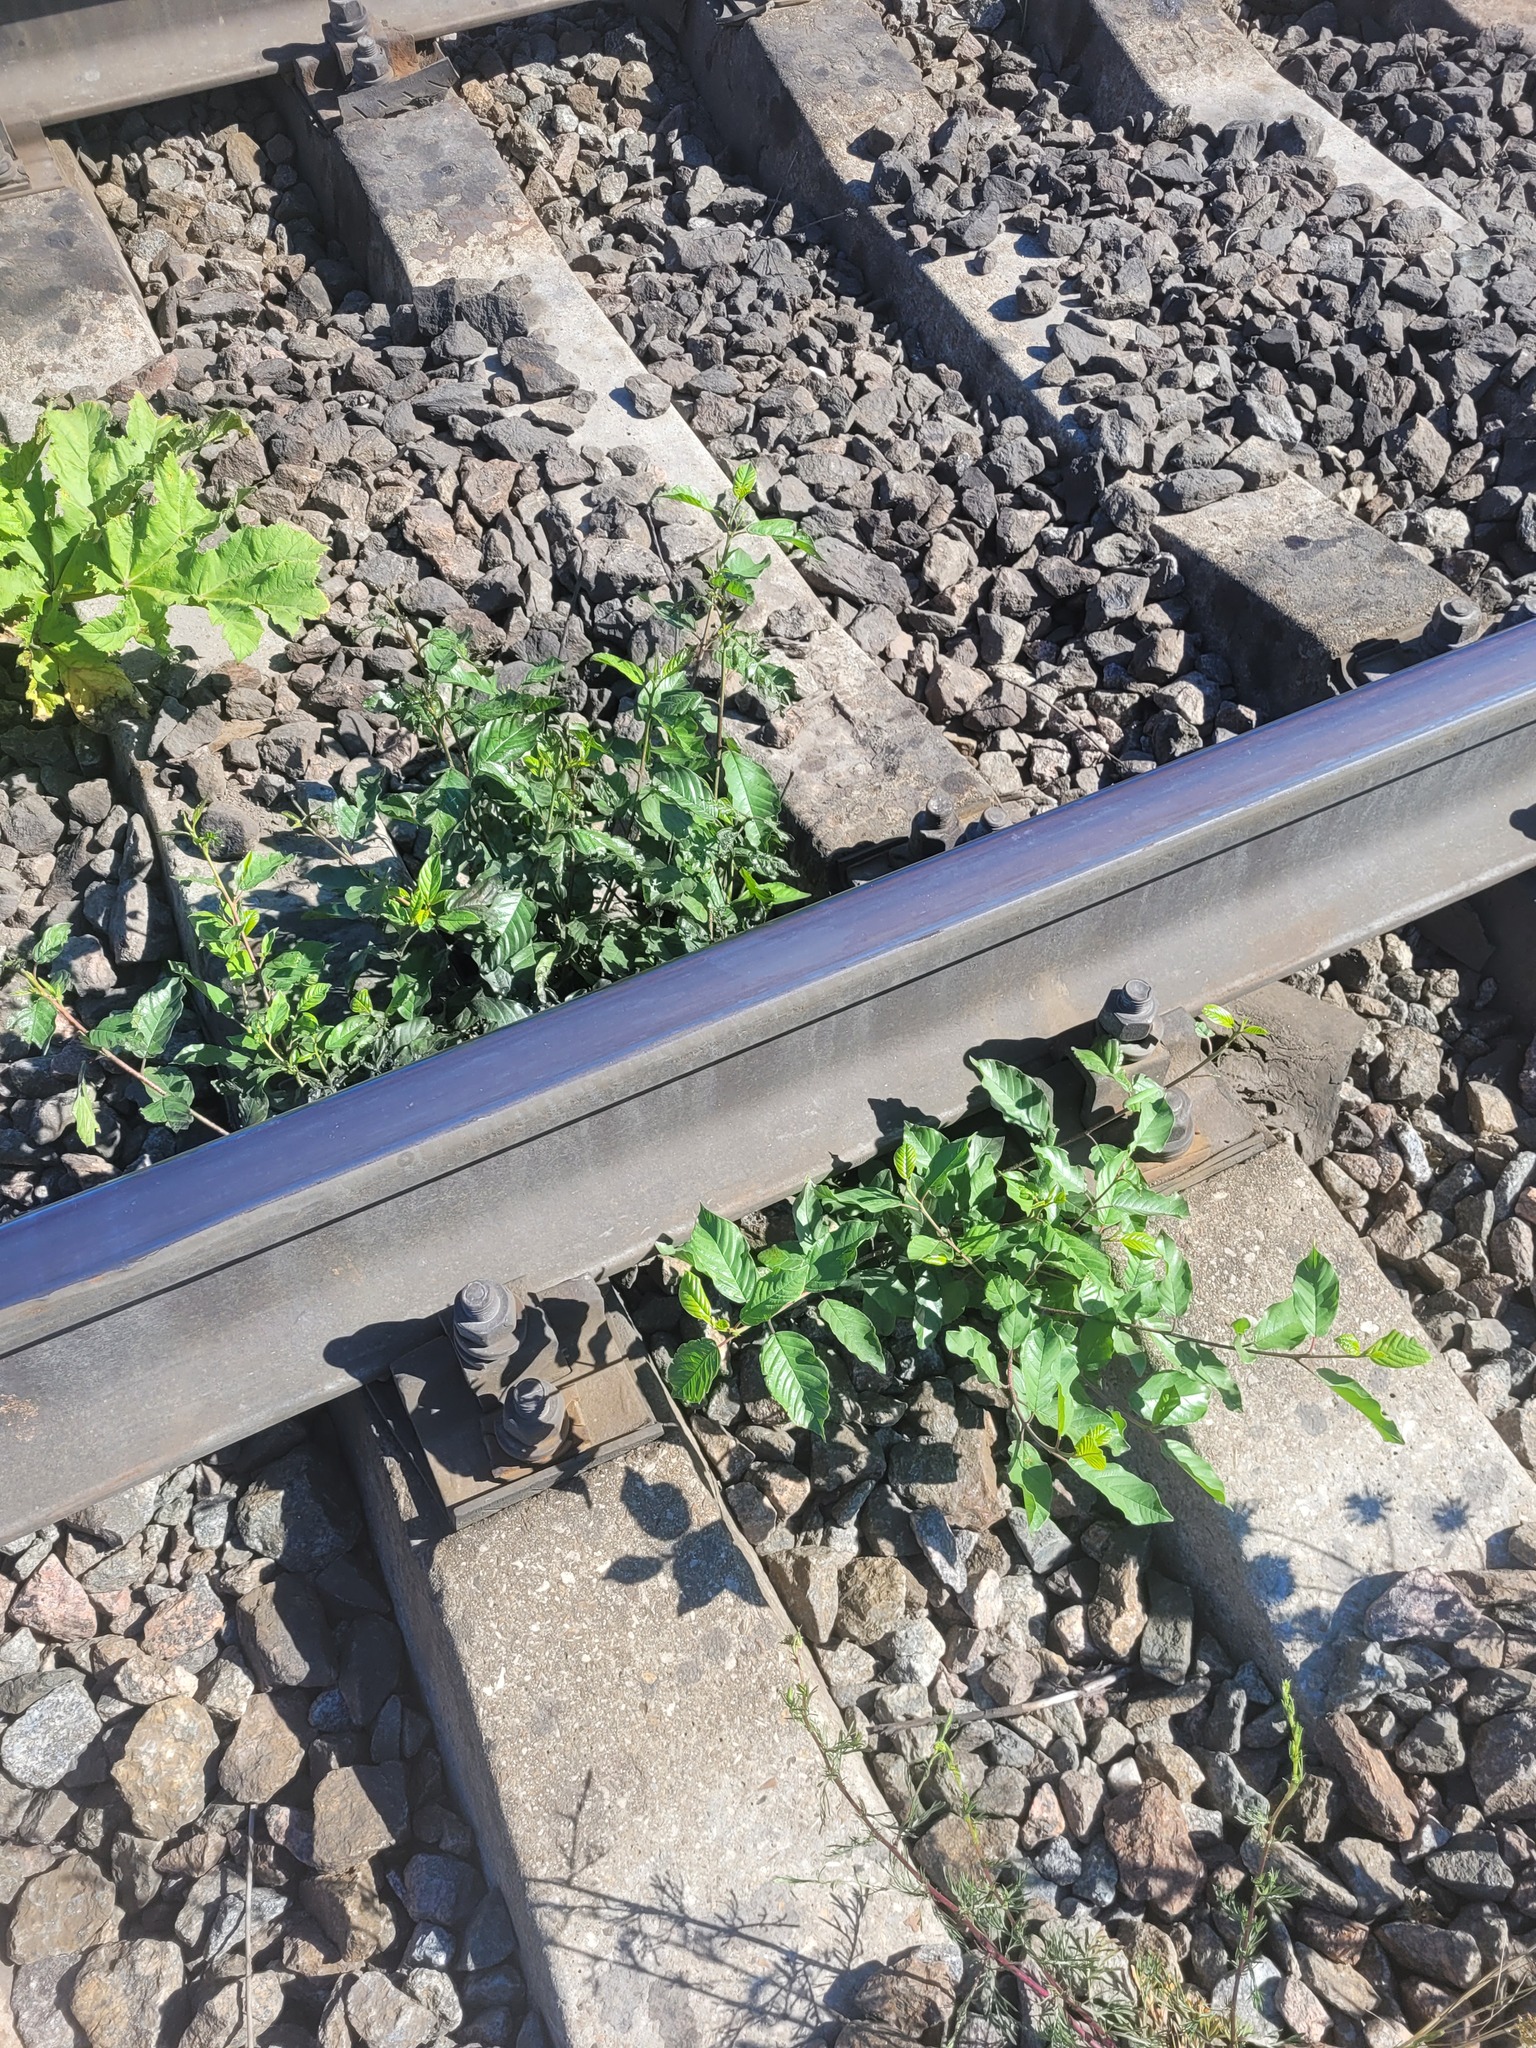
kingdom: Plantae
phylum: Tracheophyta
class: Magnoliopsida
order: Rosales
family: Rhamnaceae
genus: Frangula
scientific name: Frangula alnus
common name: Alder buckthorn
